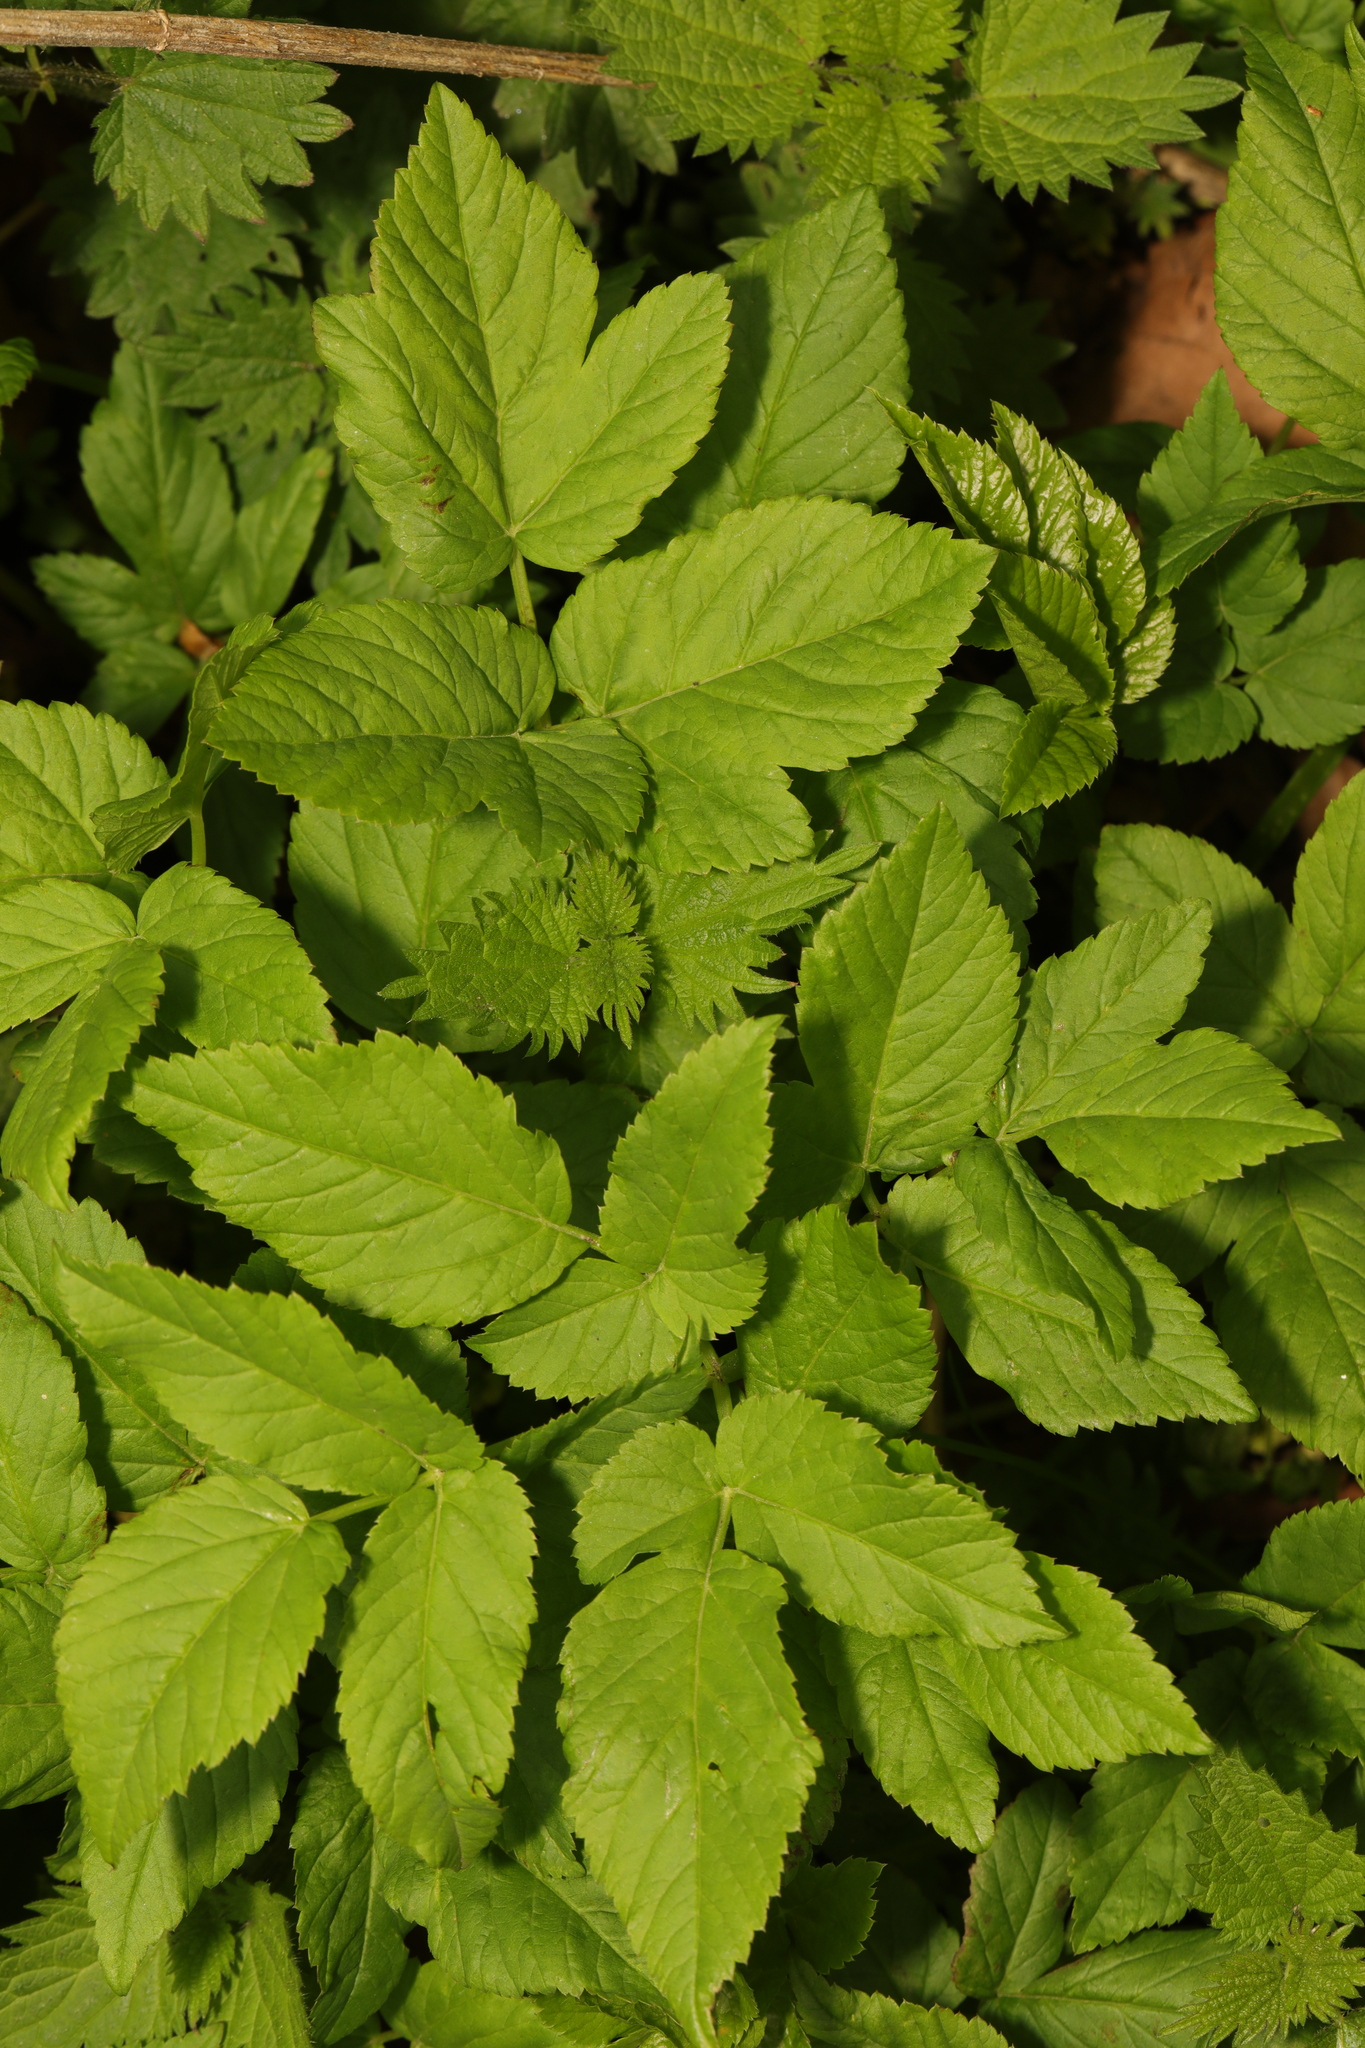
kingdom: Plantae
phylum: Tracheophyta
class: Magnoliopsida
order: Apiales
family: Apiaceae
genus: Aegopodium
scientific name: Aegopodium podagraria
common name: Ground-elder
